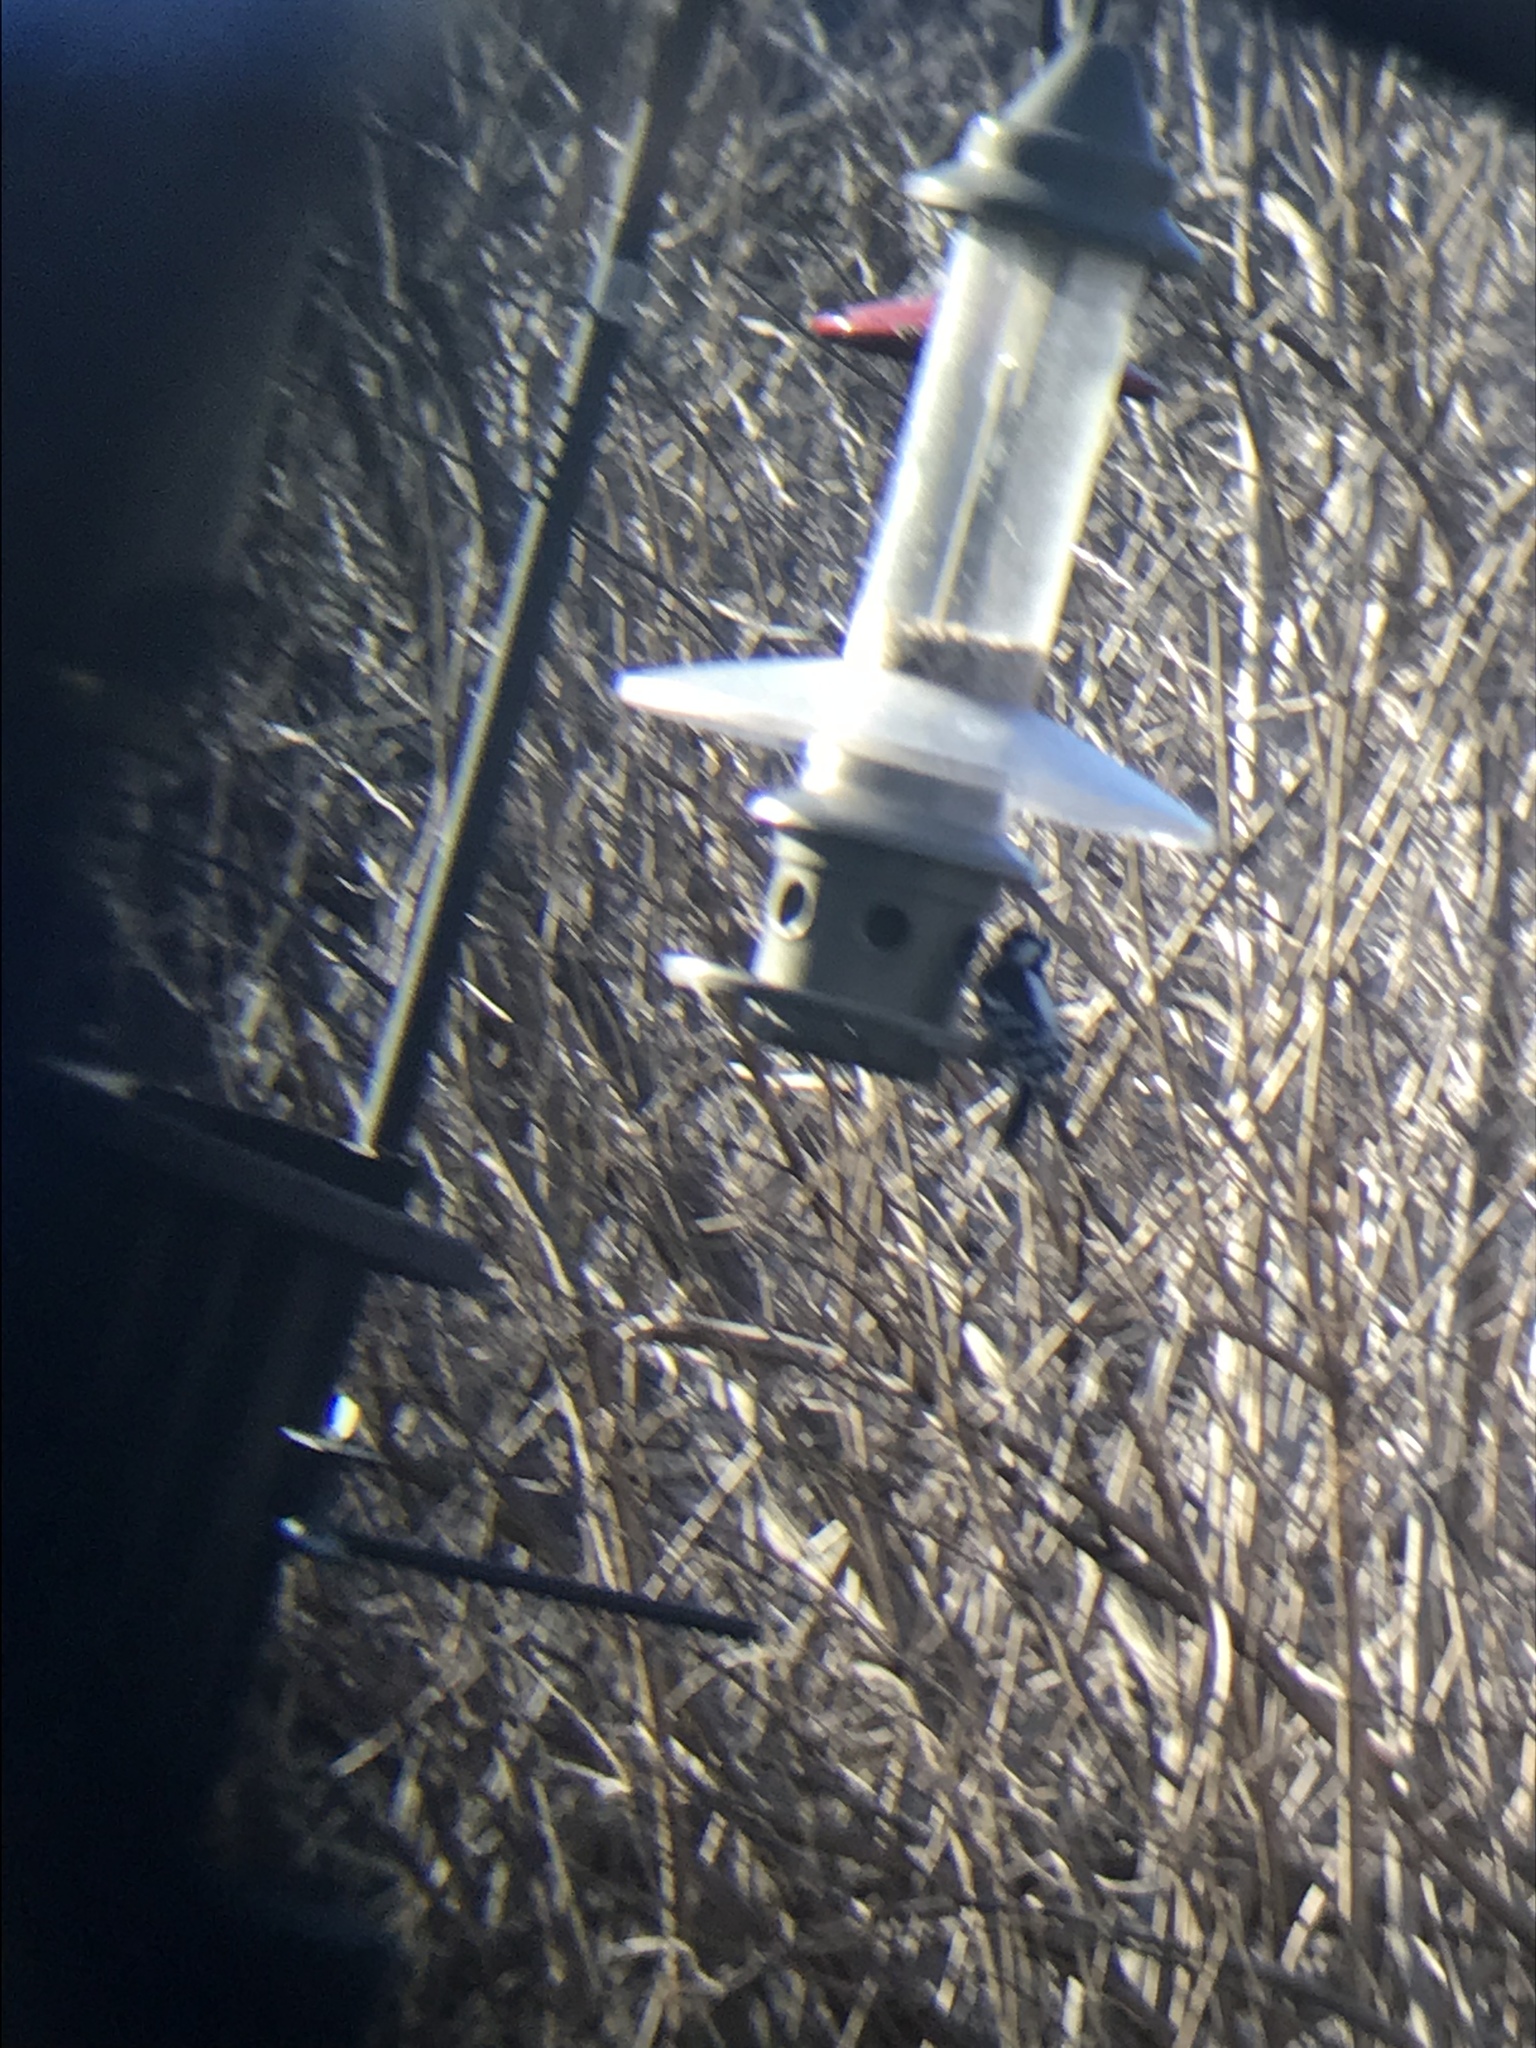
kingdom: Animalia
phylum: Chordata
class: Aves
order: Piciformes
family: Picidae
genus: Dryobates
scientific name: Dryobates pubescens
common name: Downy woodpecker
